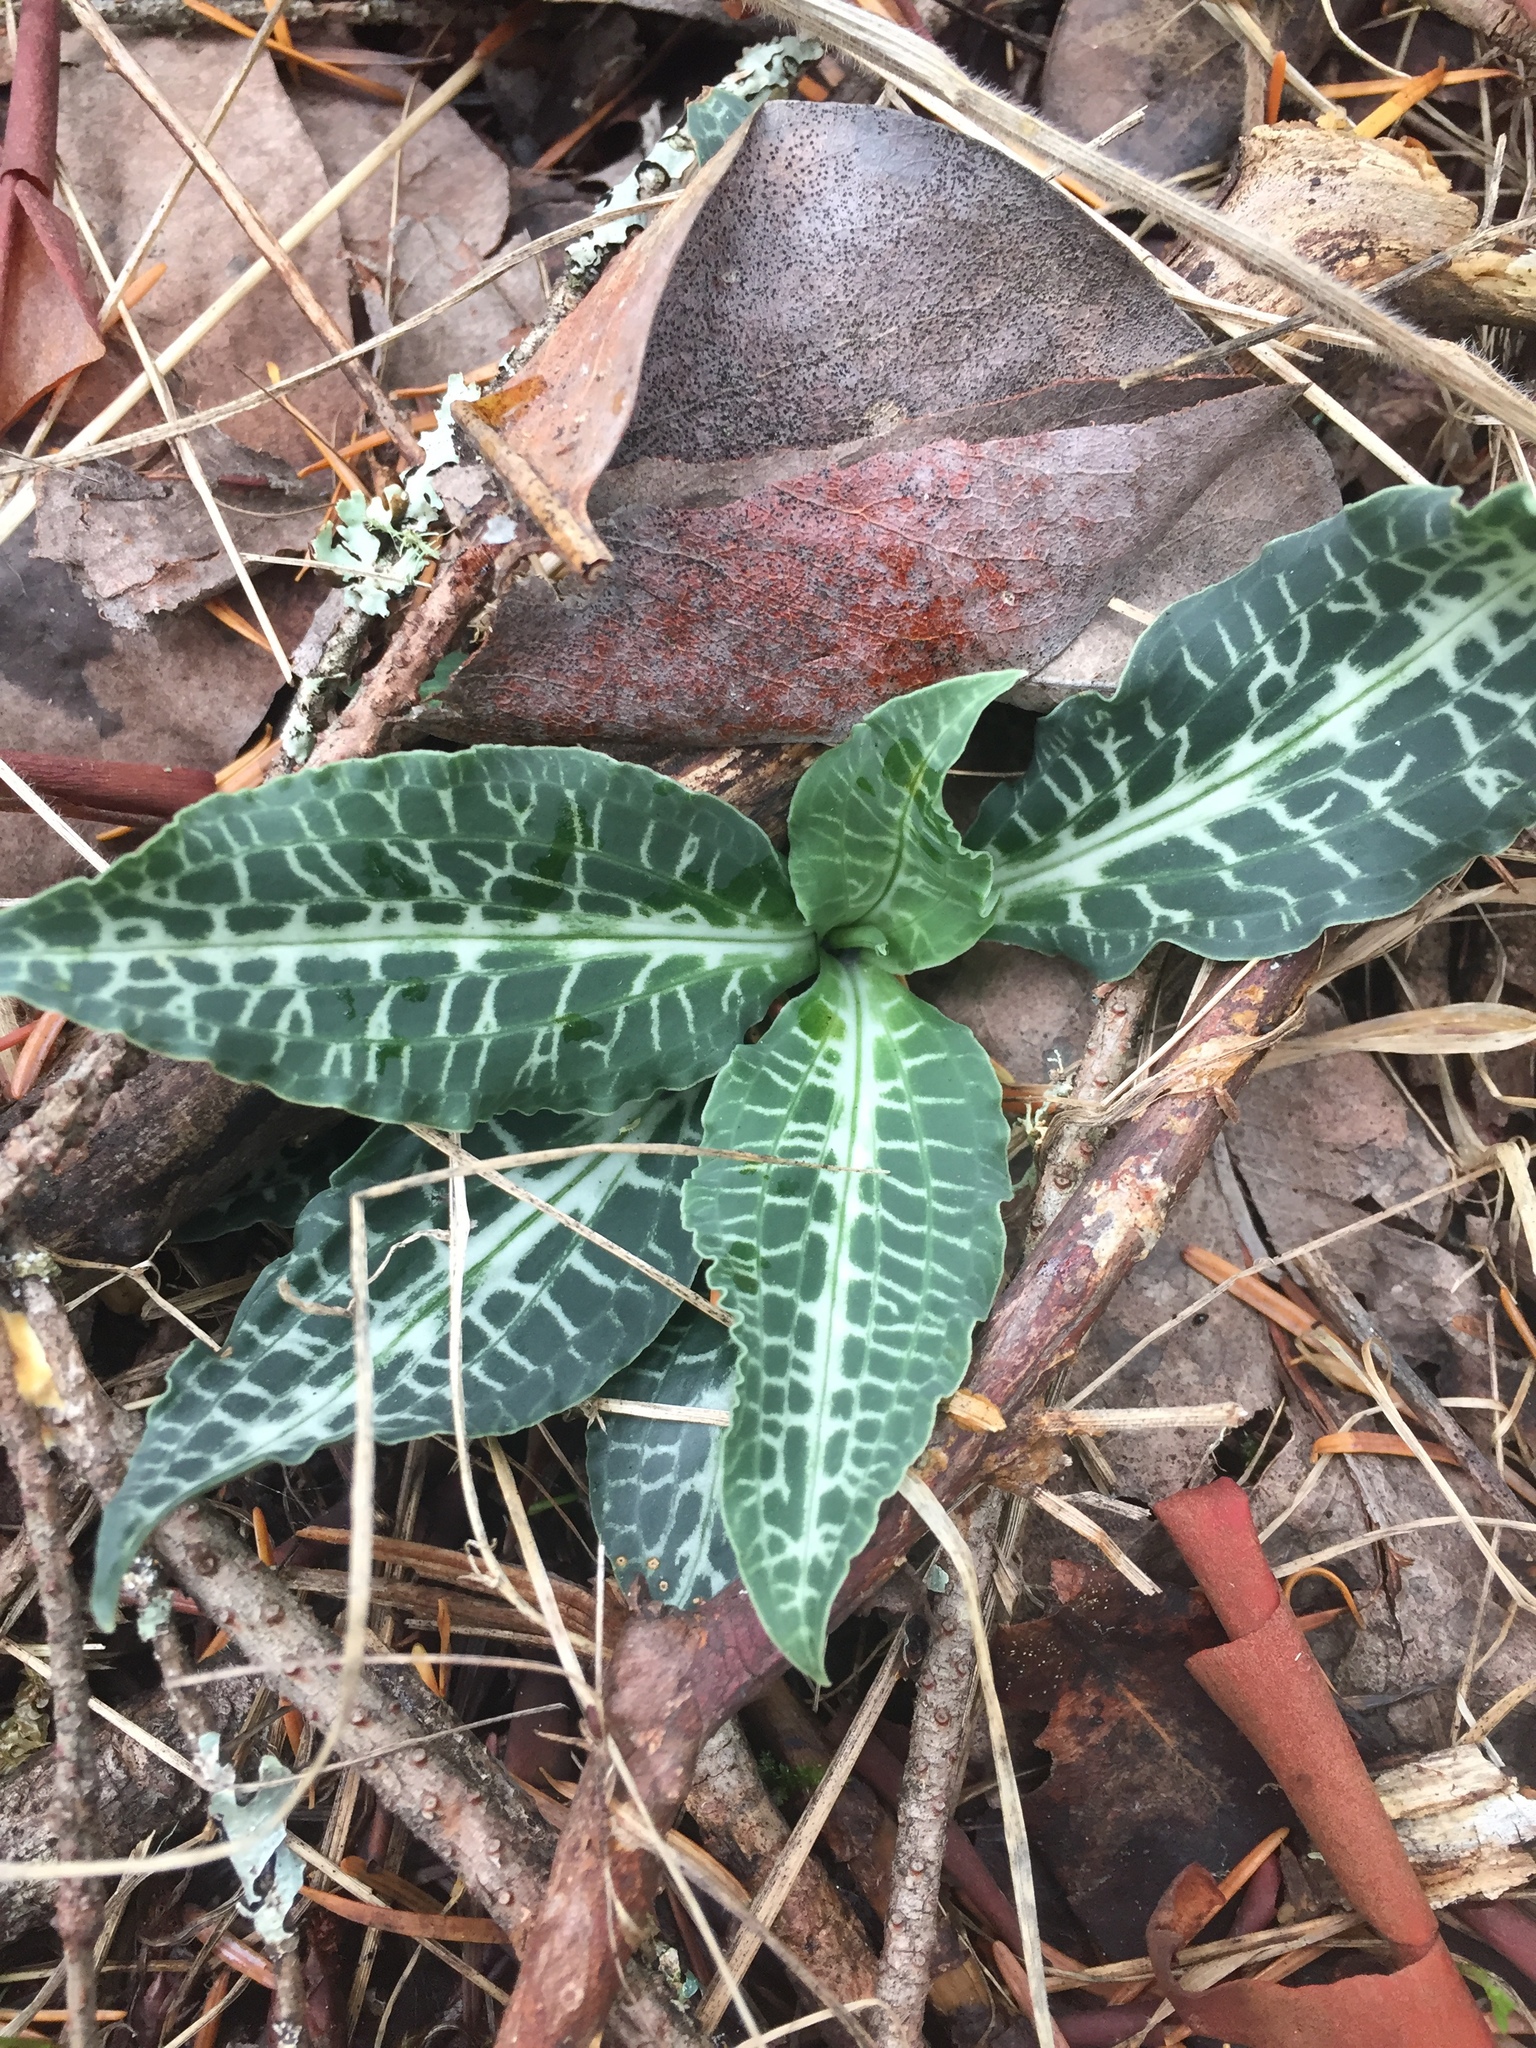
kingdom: Plantae
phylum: Tracheophyta
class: Liliopsida
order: Asparagales
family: Orchidaceae
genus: Goodyera
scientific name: Goodyera oblongifolia
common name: Giant rattlesnake-plantain
